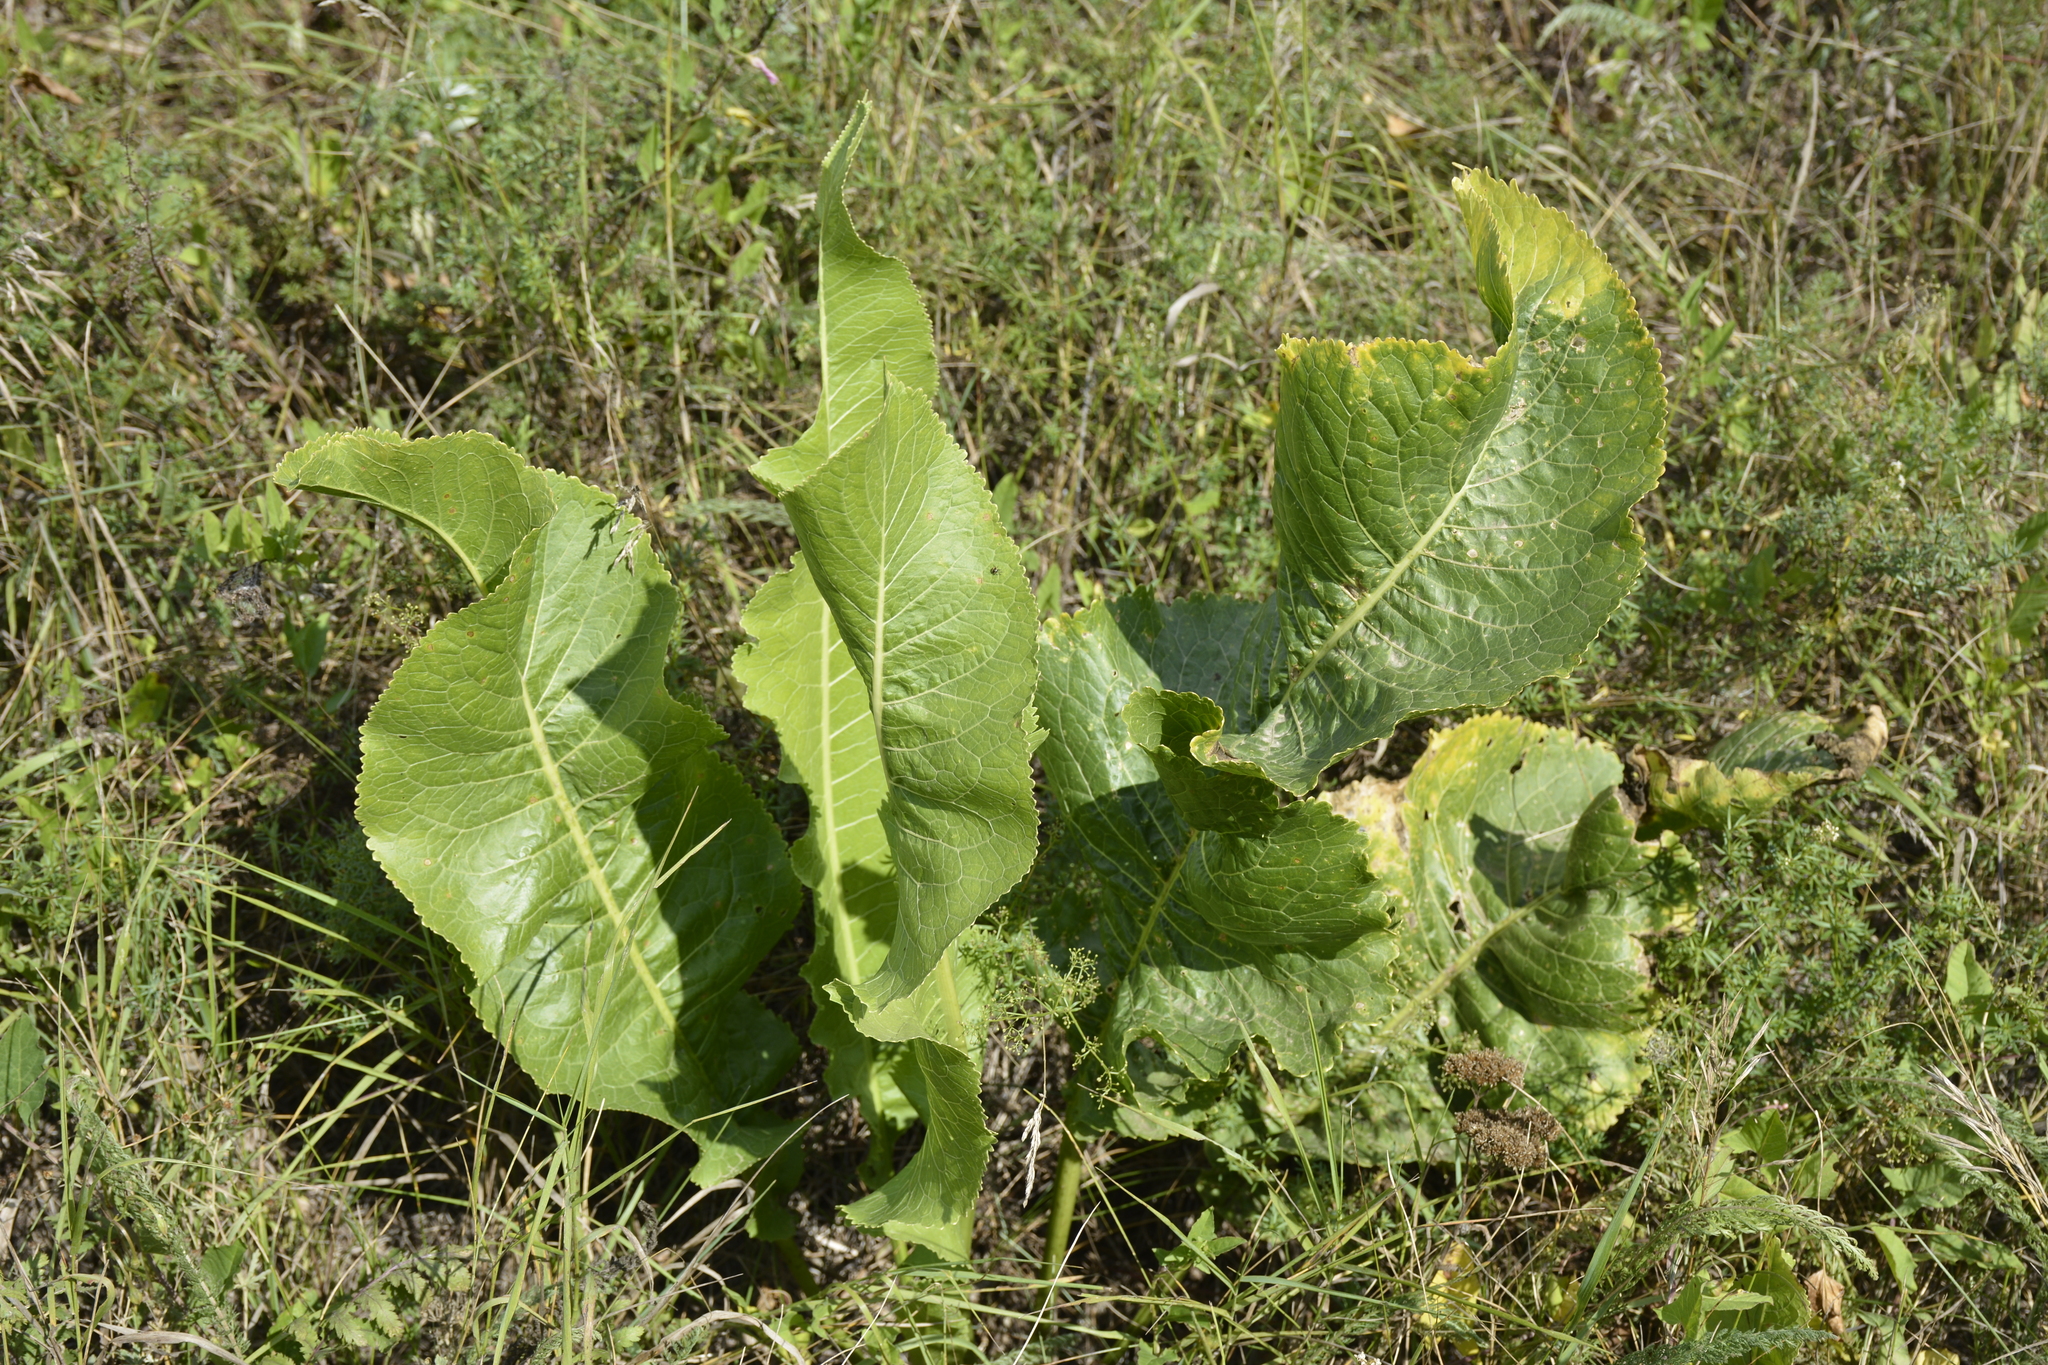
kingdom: Plantae
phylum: Tracheophyta
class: Magnoliopsida
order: Brassicales
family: Brassicaceae
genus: Armoracia
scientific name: Armoracia rusticana
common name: Horseradish
